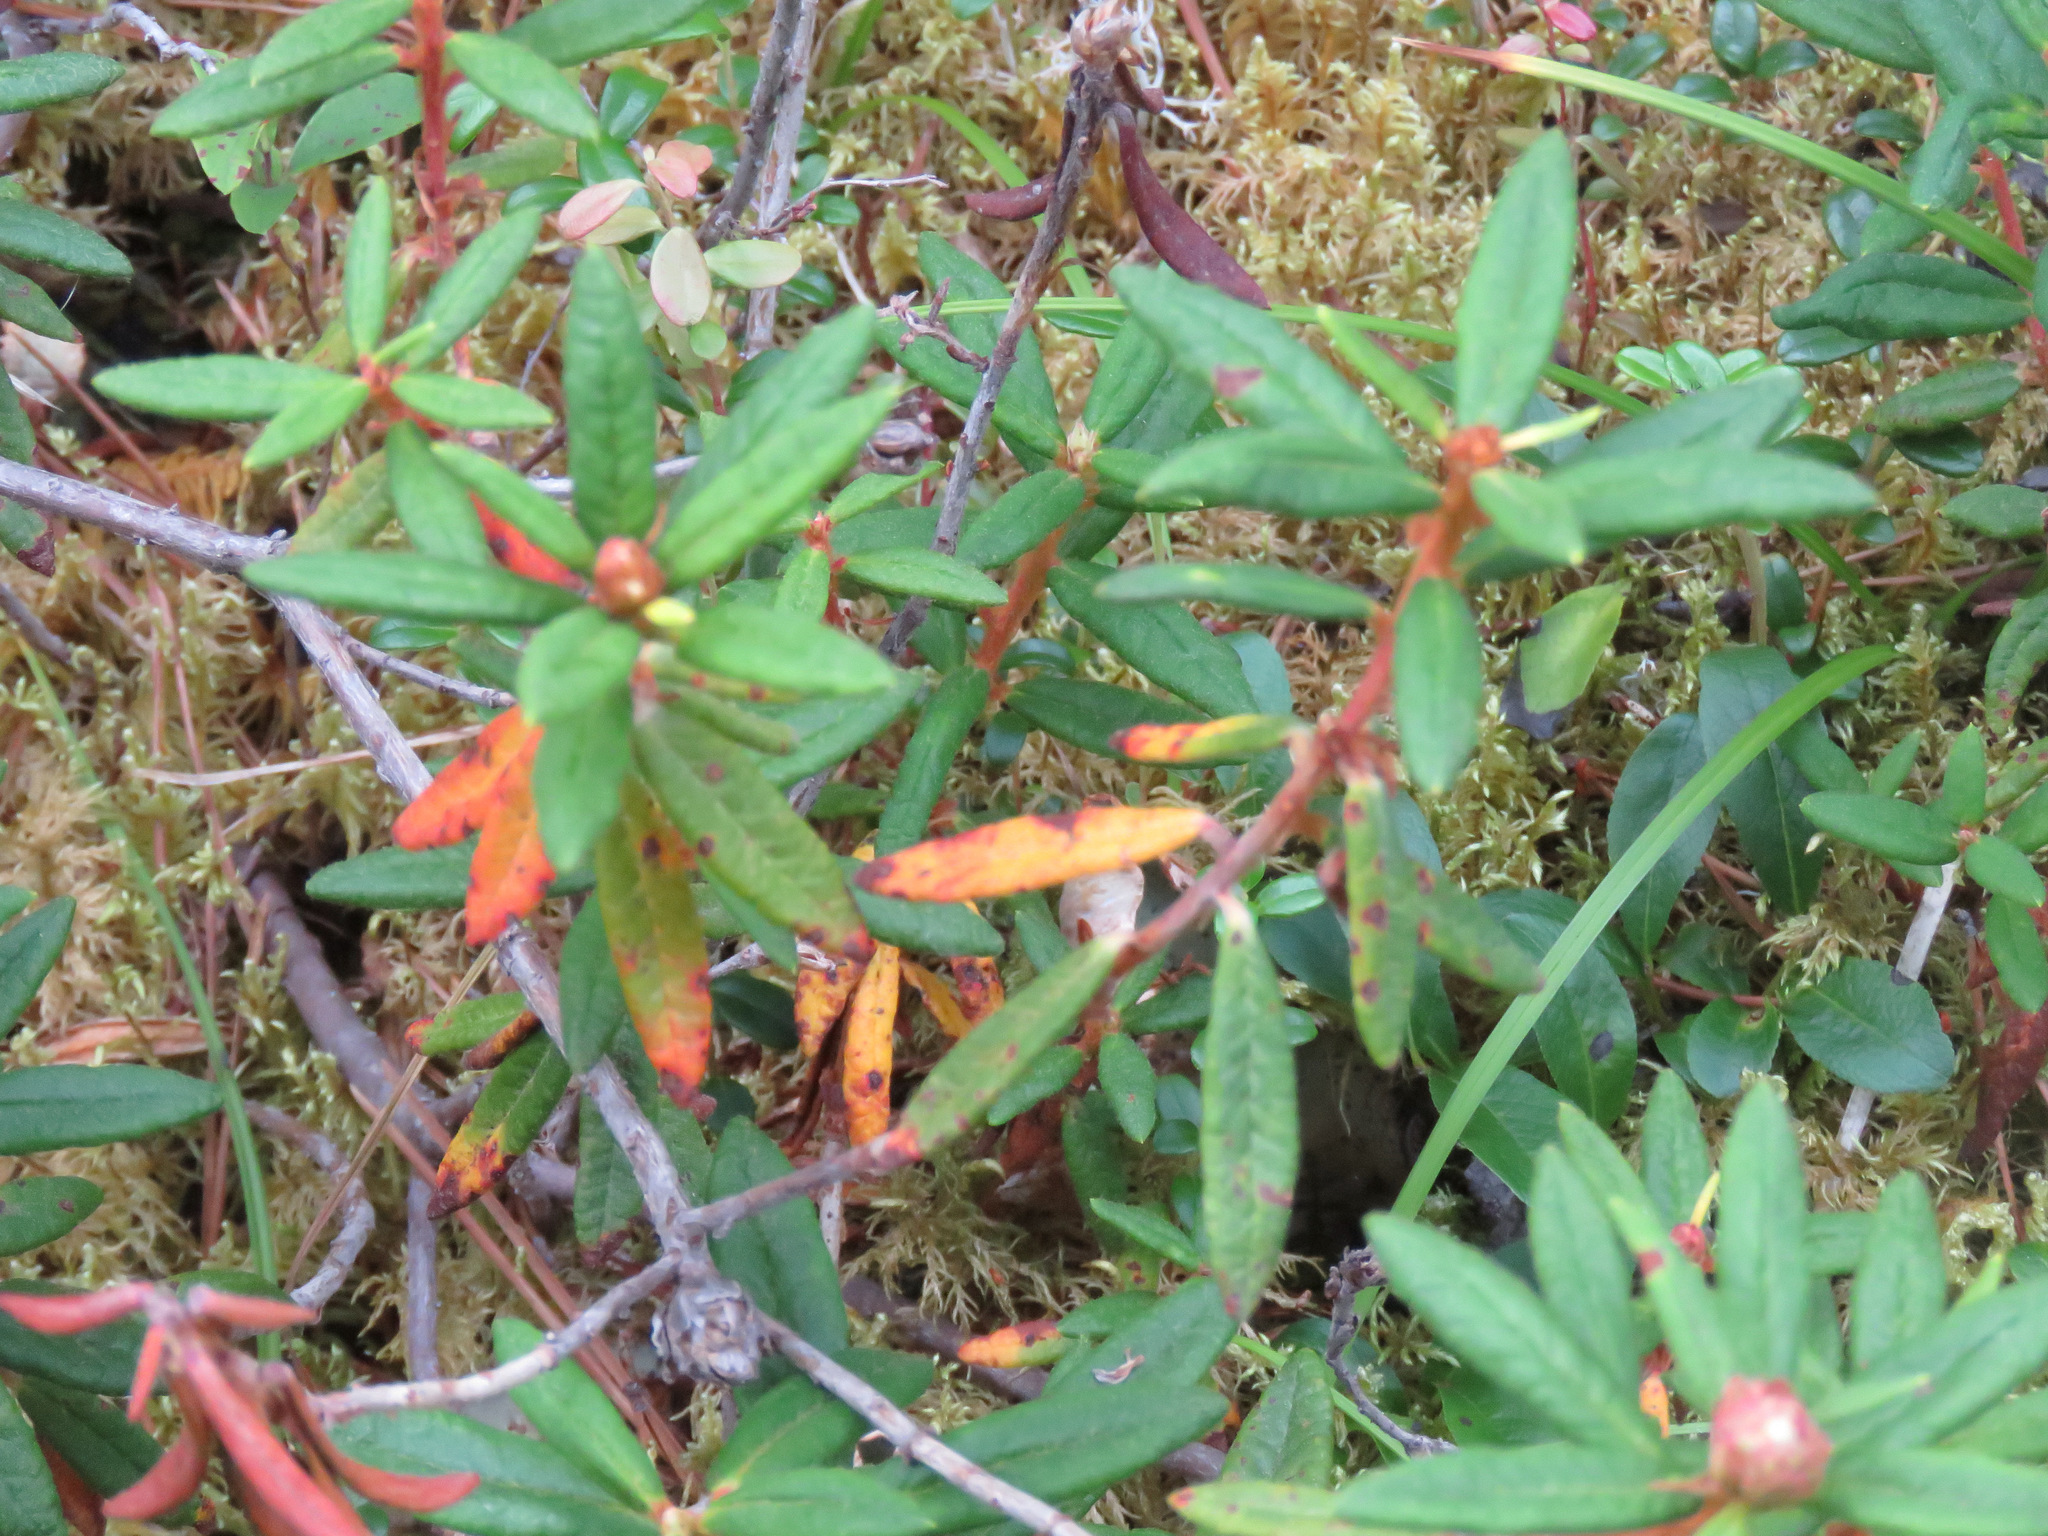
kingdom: Plantae
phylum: Tracheophyta
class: Magnoliopsida
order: Ericales
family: Ericaceae
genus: Rhododendron
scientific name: Rhododendron groenlandicum
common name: Bog labrador tea
